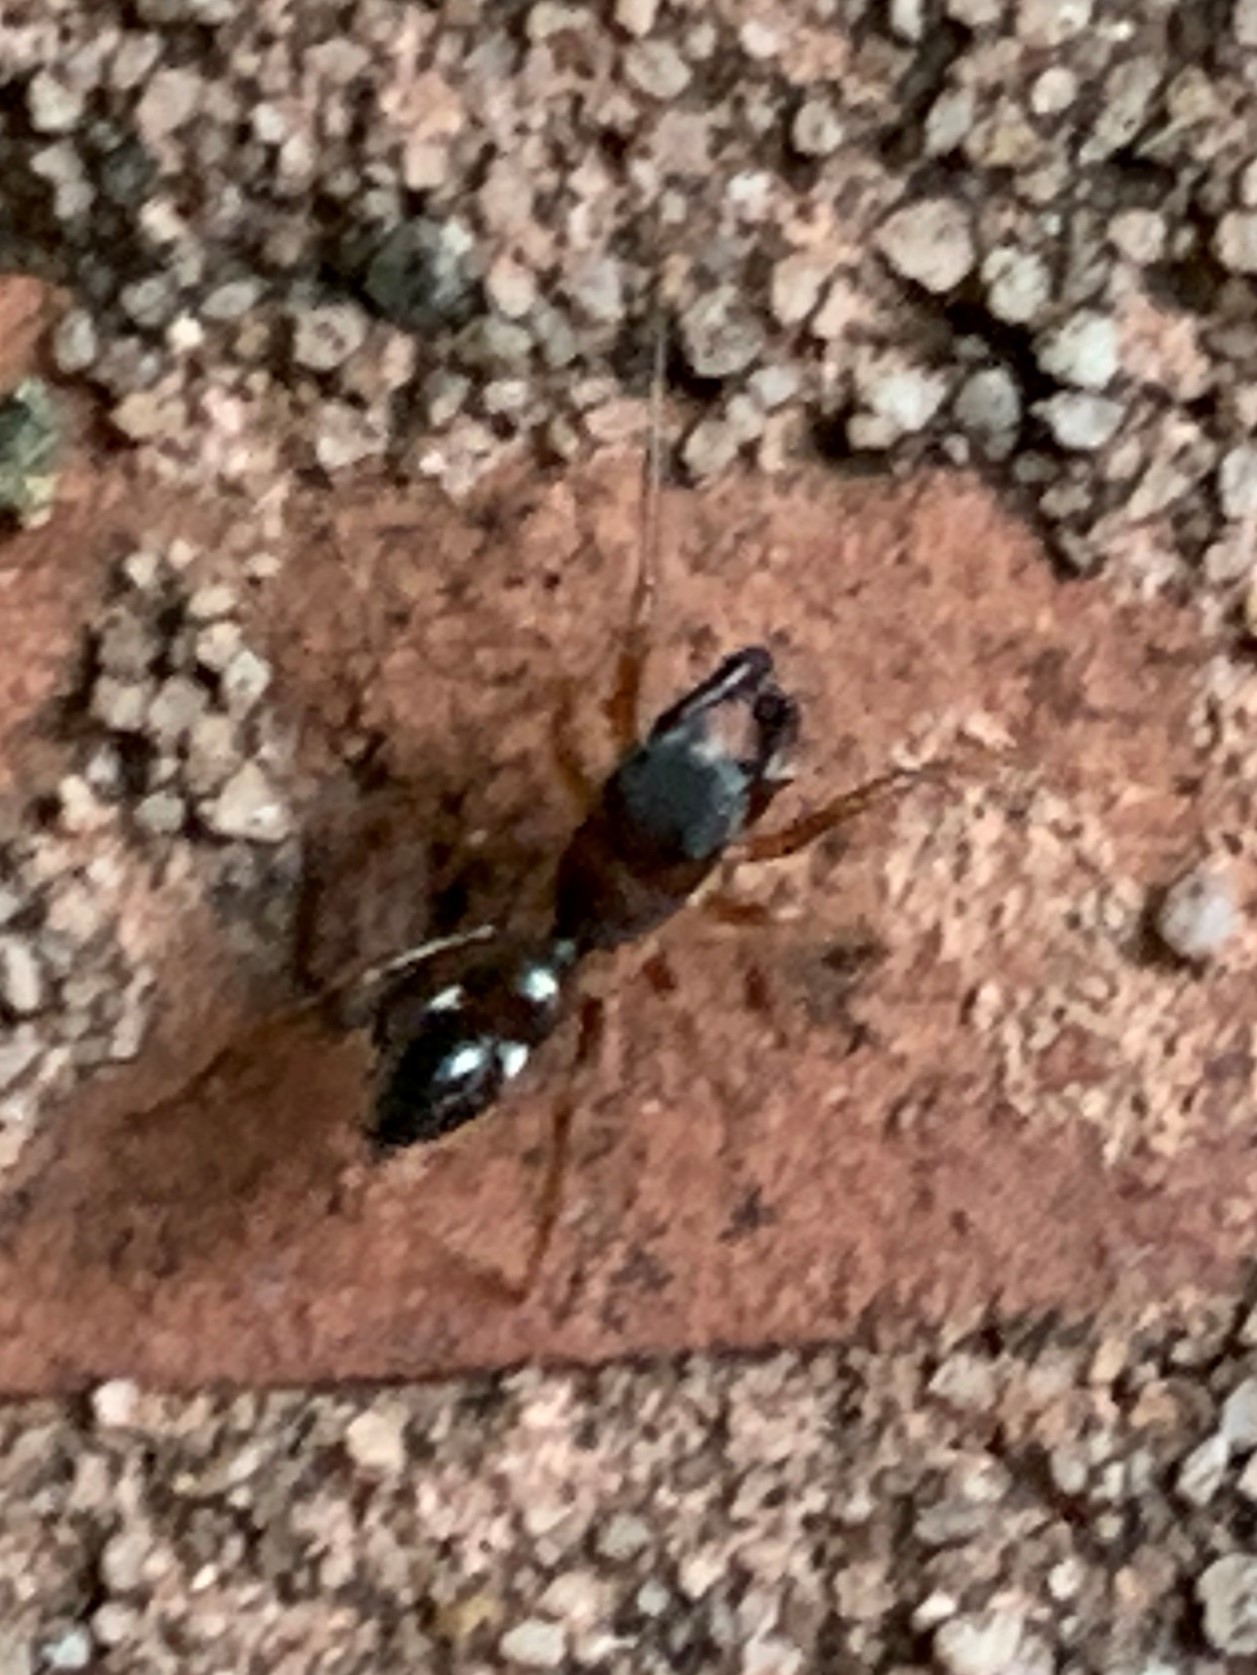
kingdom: Animalia
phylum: Arthropoda
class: Arachnida
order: Araneae
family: Salticidae
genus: Sarinda
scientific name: Sarinda hentzi
